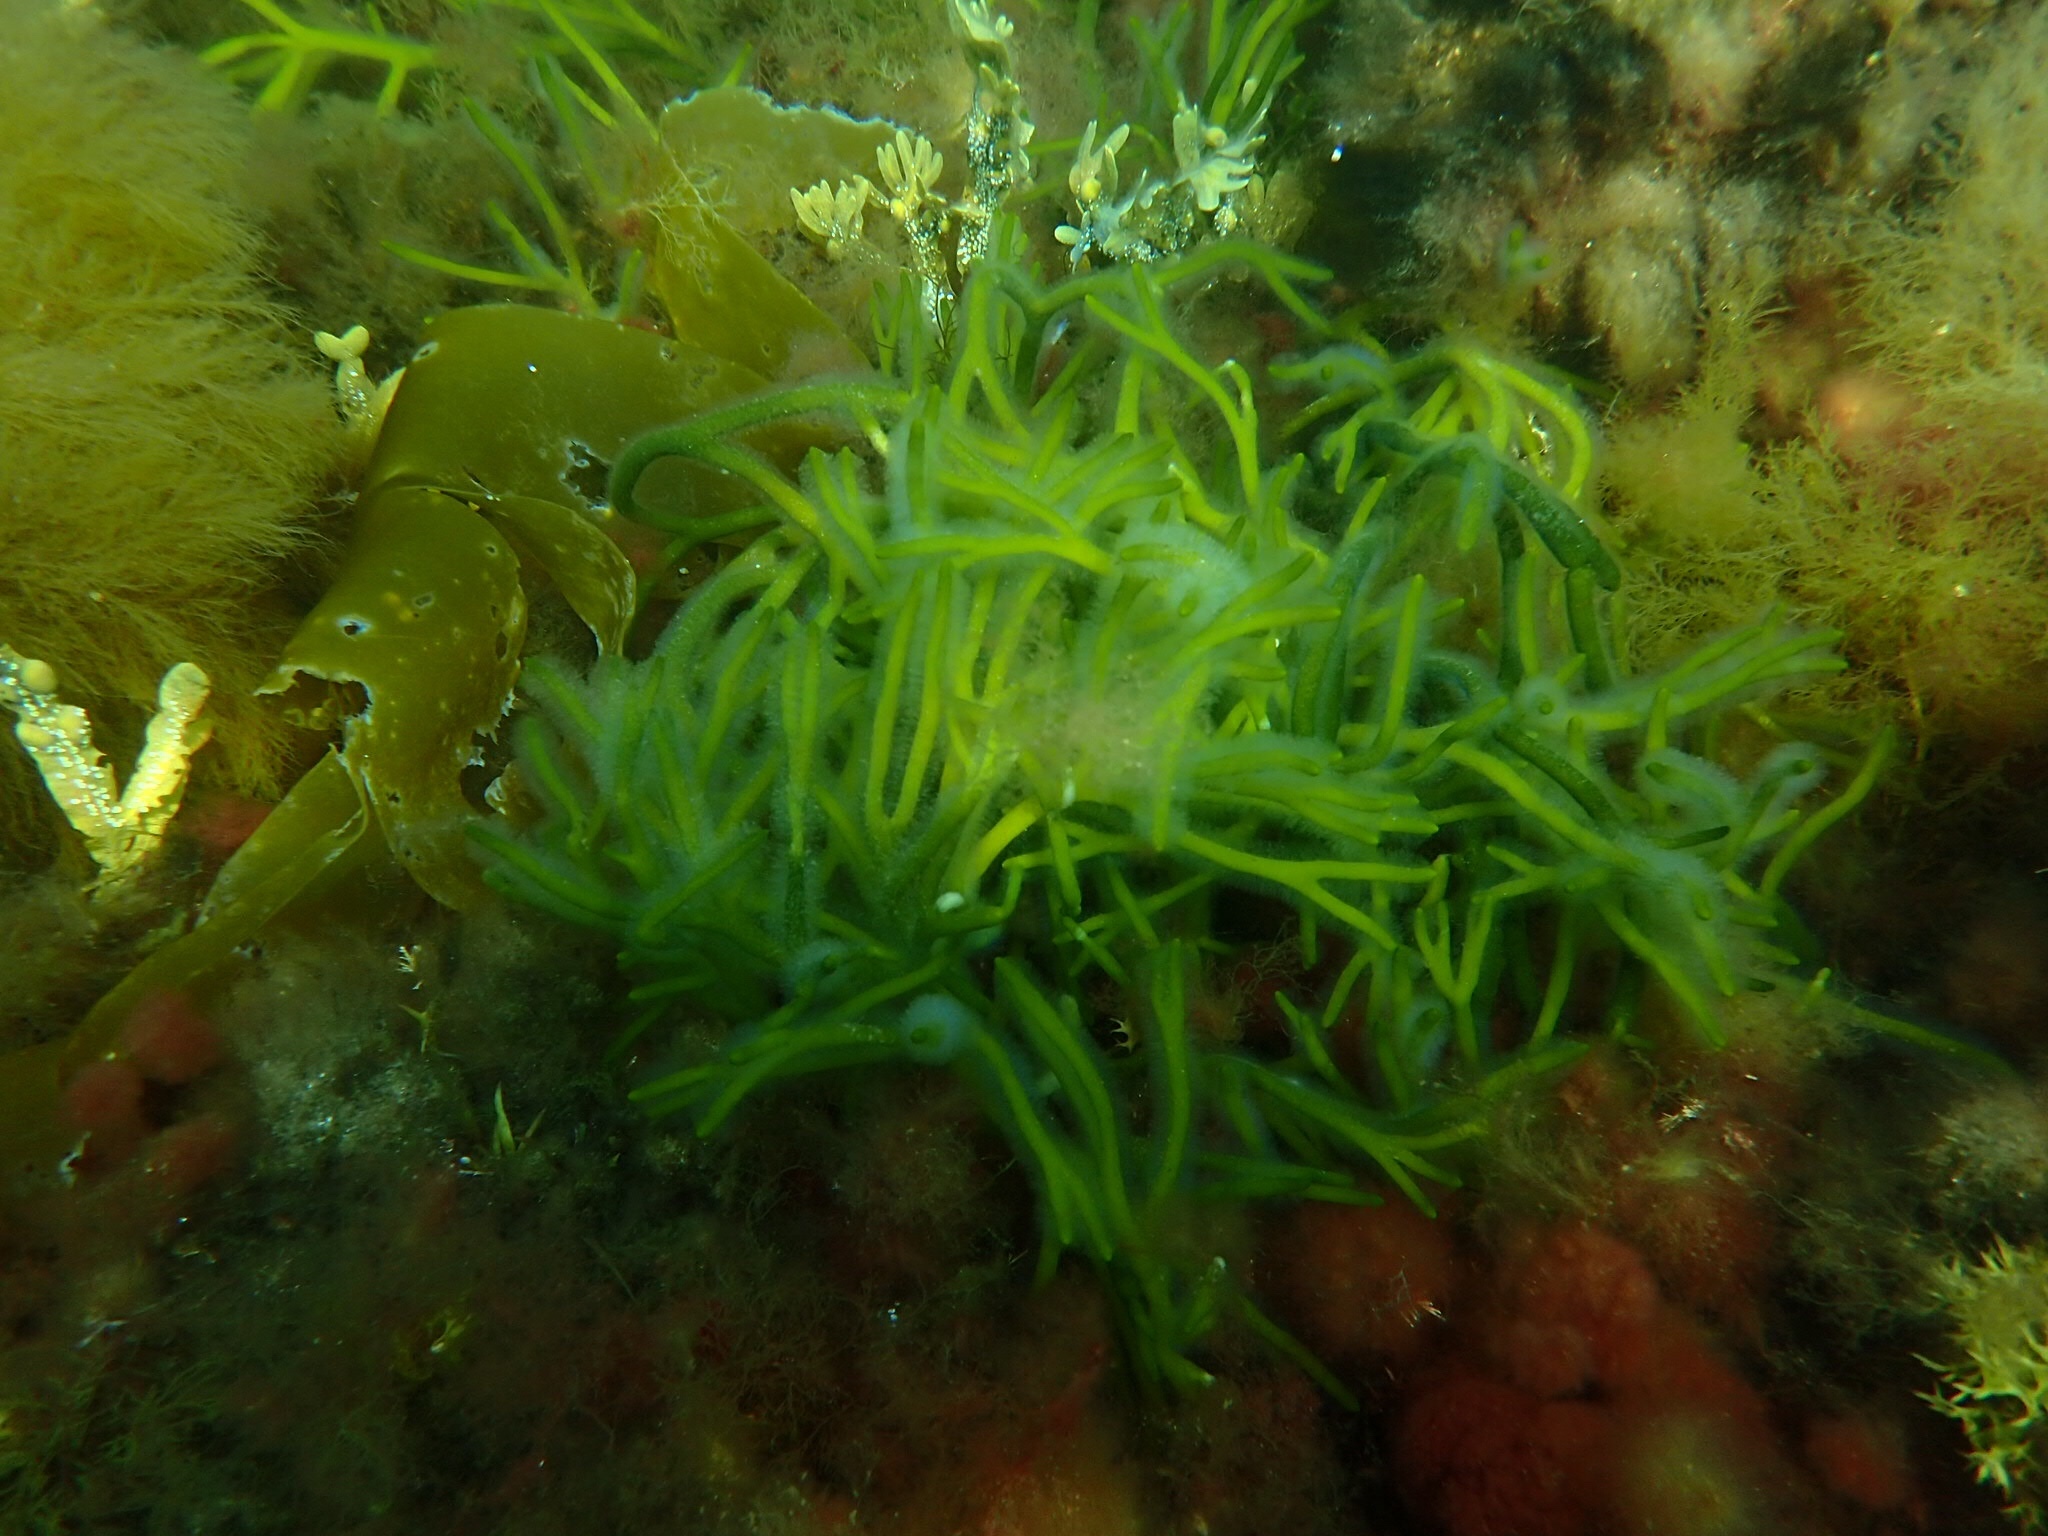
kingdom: Plantae
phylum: Chlorophyta
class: Ulvophyceae
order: Bryopsidales
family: Codiaceae
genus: Codium
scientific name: Codium fragile
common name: Dead man's fingers
